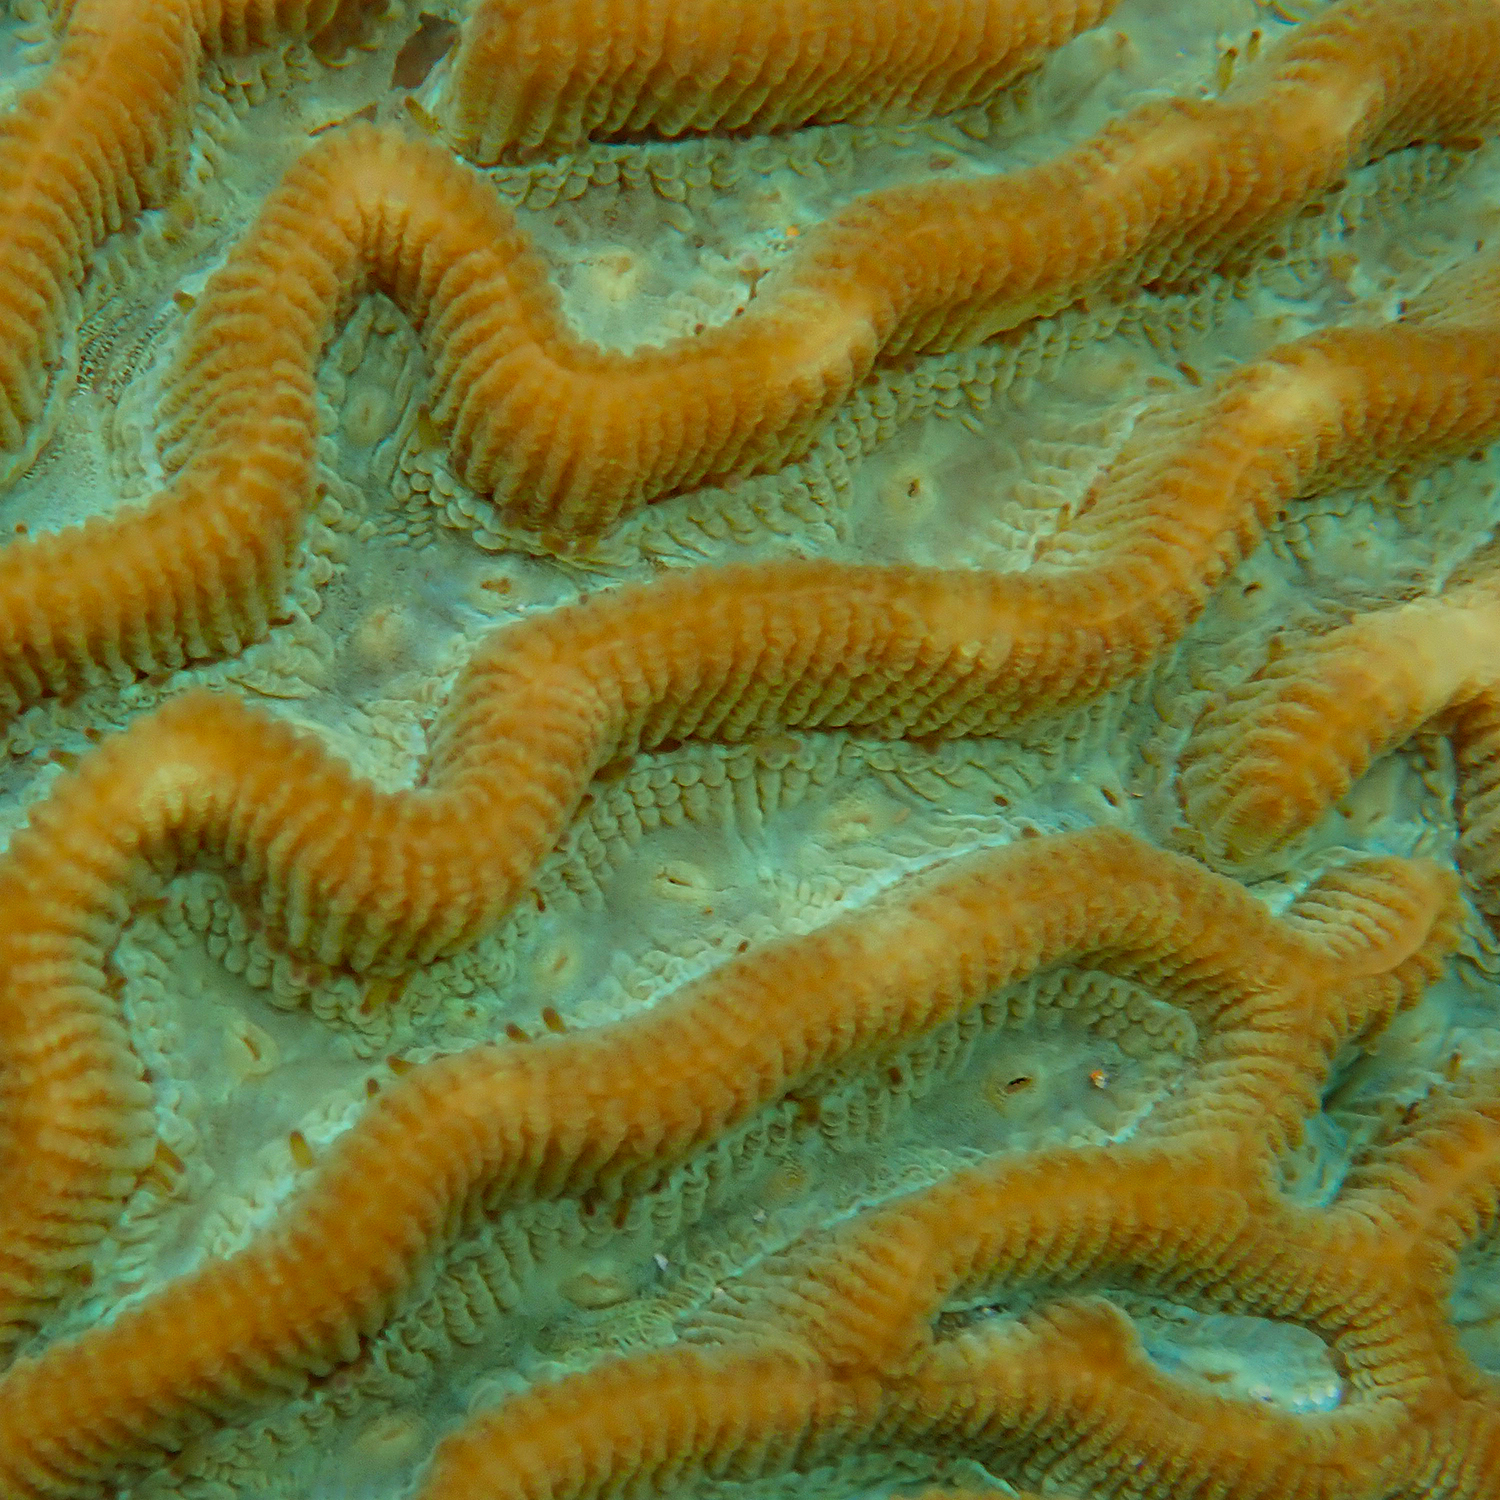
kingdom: Animalia
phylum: Cnidaria
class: Anthozoa
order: Scleractinia
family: Merulinidae
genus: Paragoniastrea
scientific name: Paragoniastrea australensis
